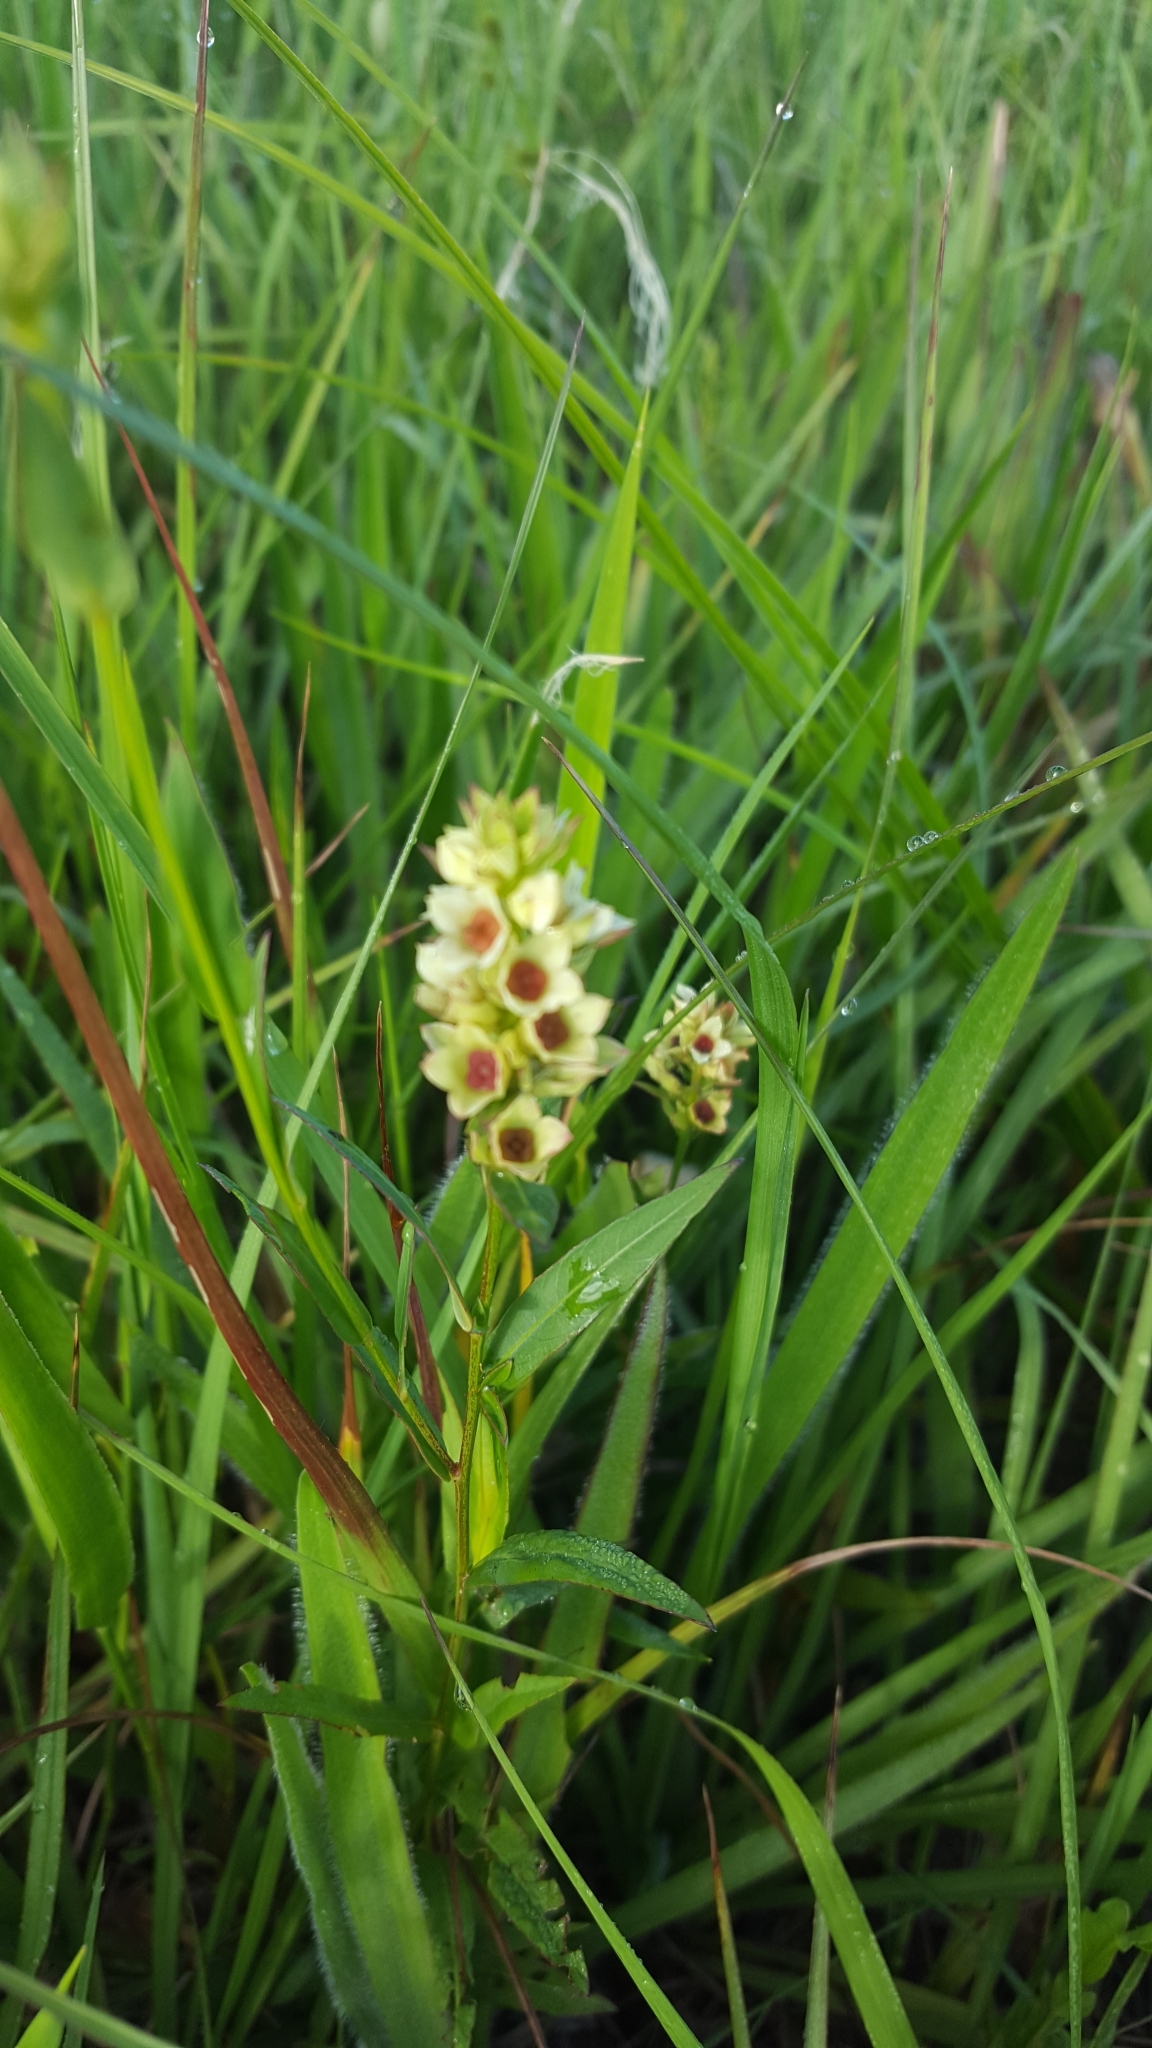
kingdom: Plantae
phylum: Tracheophyta
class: Magnoliopsida
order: Myrtales
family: Onagraceae
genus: Ludwigia
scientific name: Ludwigia suffruticosa
